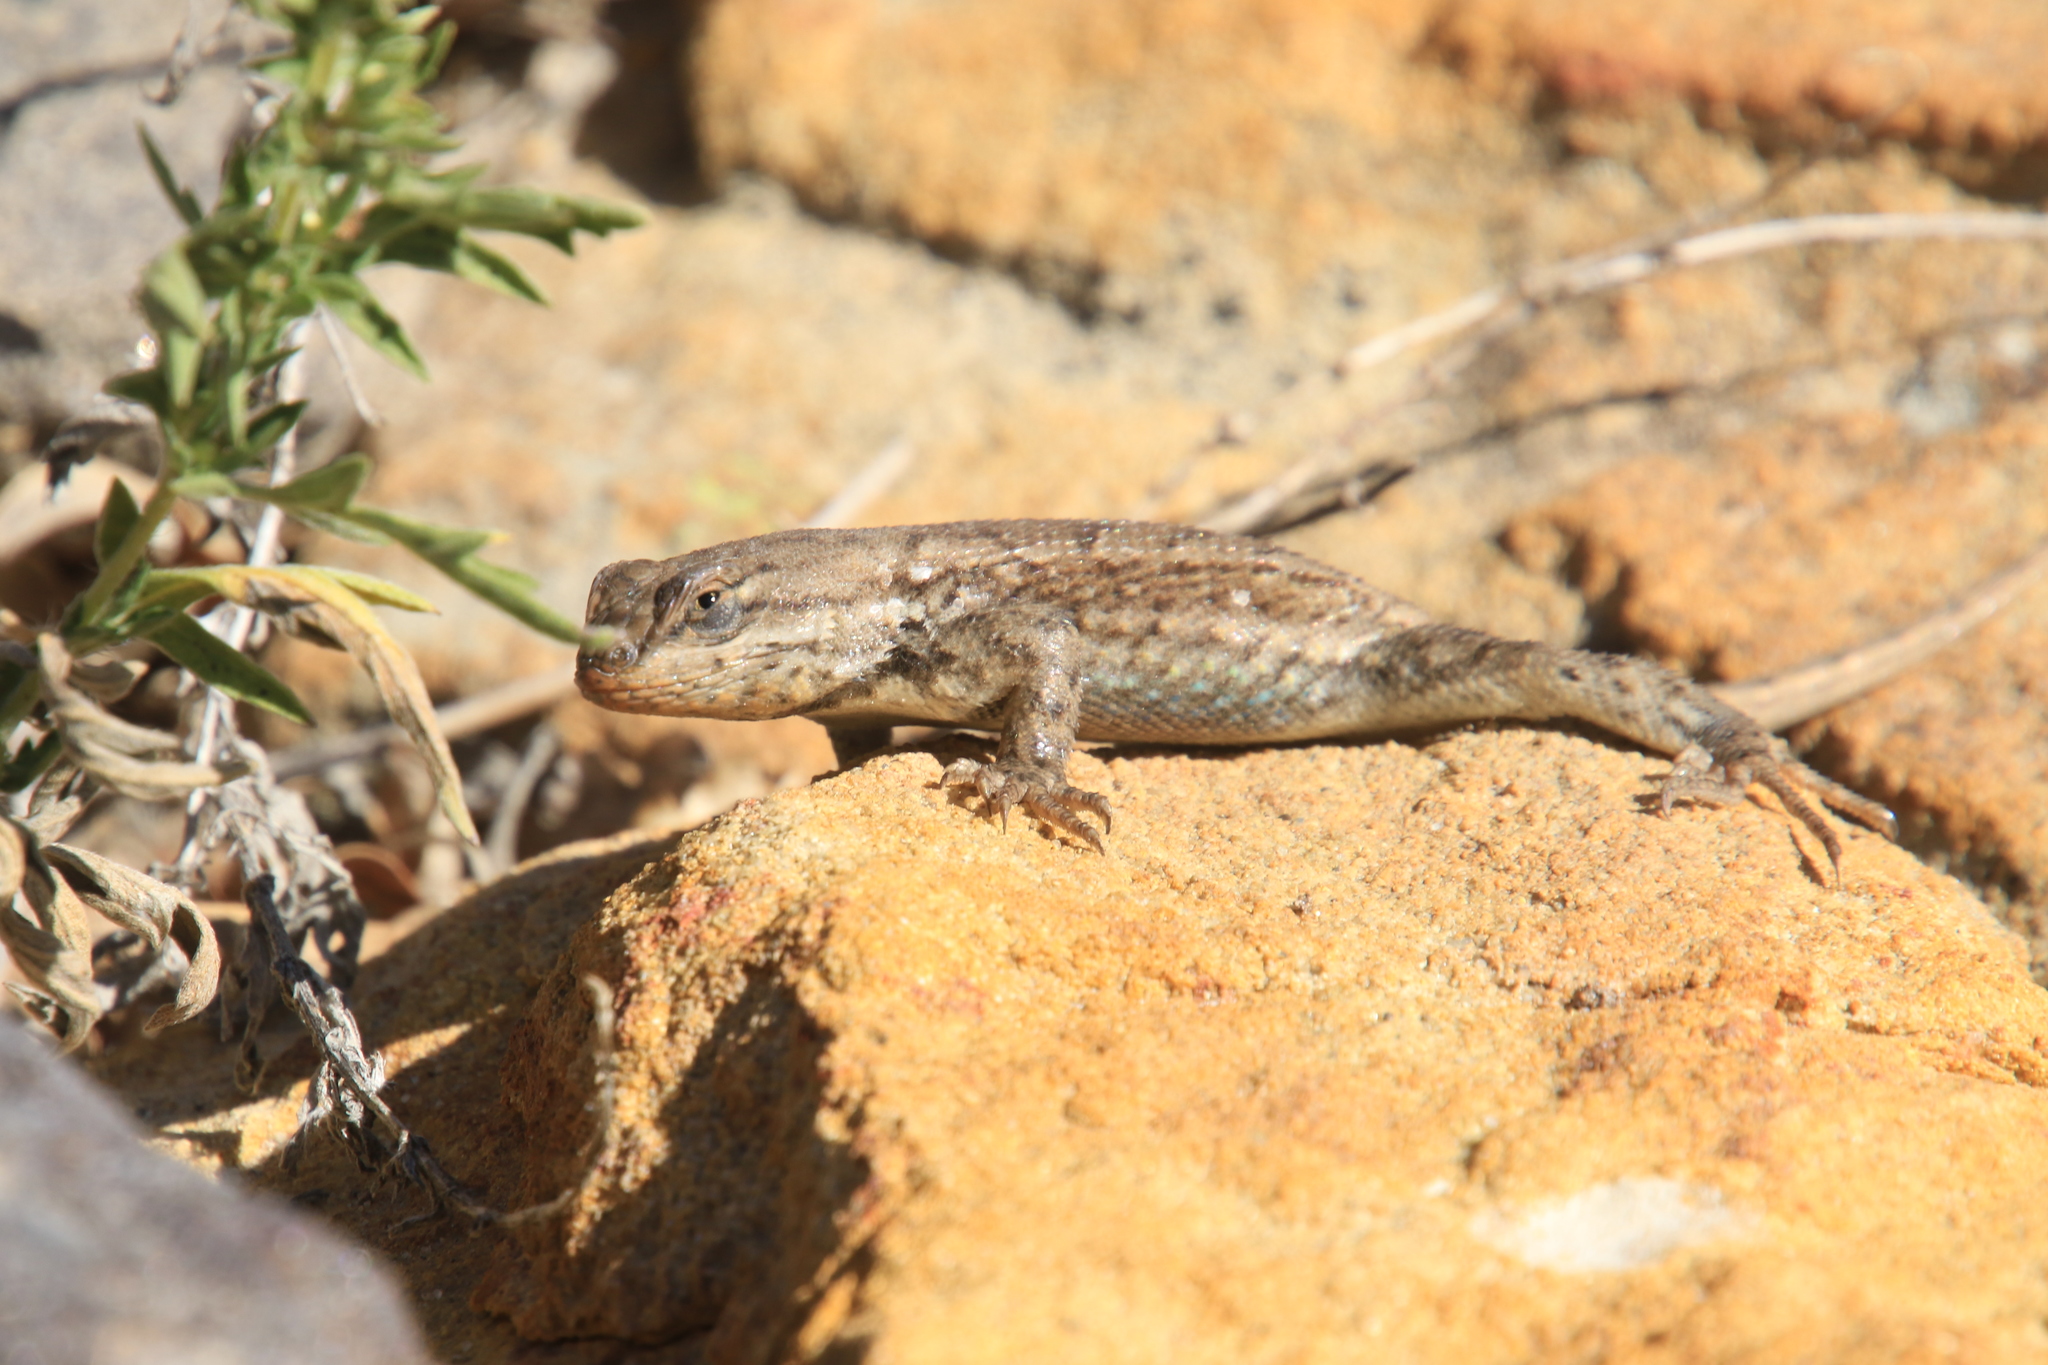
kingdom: Animalia
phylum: Chordata
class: Squamata
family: Phrynosomatidae
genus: Sceloporus
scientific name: Sceloporus consobrinus
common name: Southern prairie lizard
